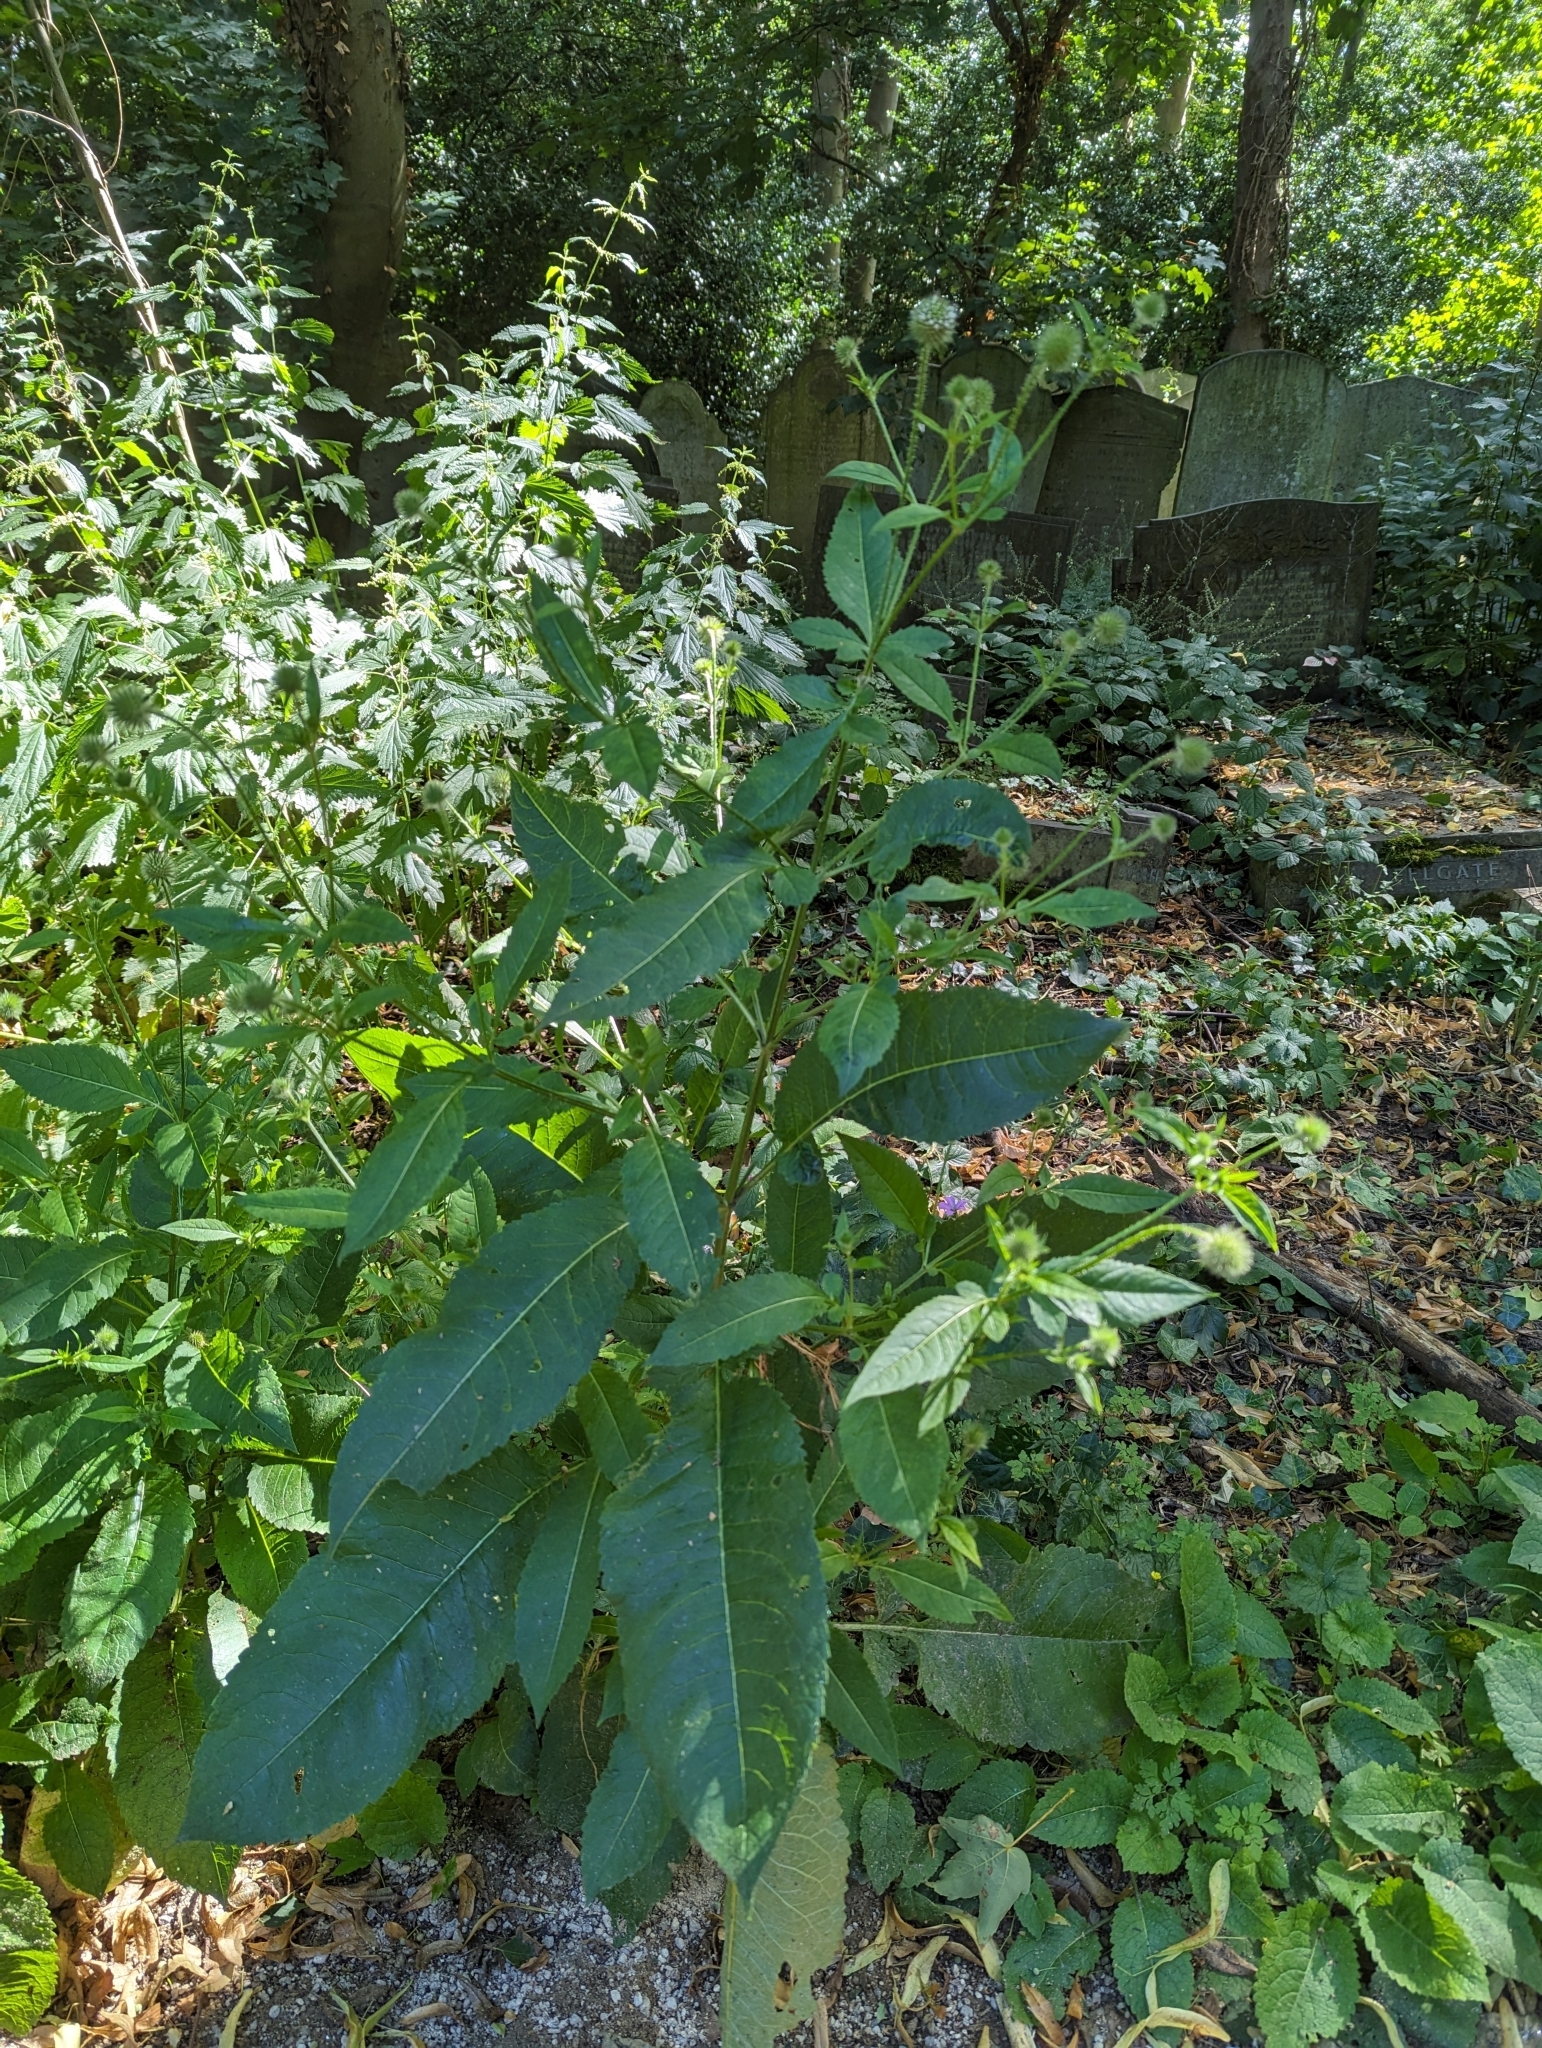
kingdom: Plantae
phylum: Tracheophyta
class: Magnoliopsida
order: Dipsacales
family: Caprifoliaceae
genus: Dipsacus
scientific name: Dipsacus pilosus
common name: Small teasel
